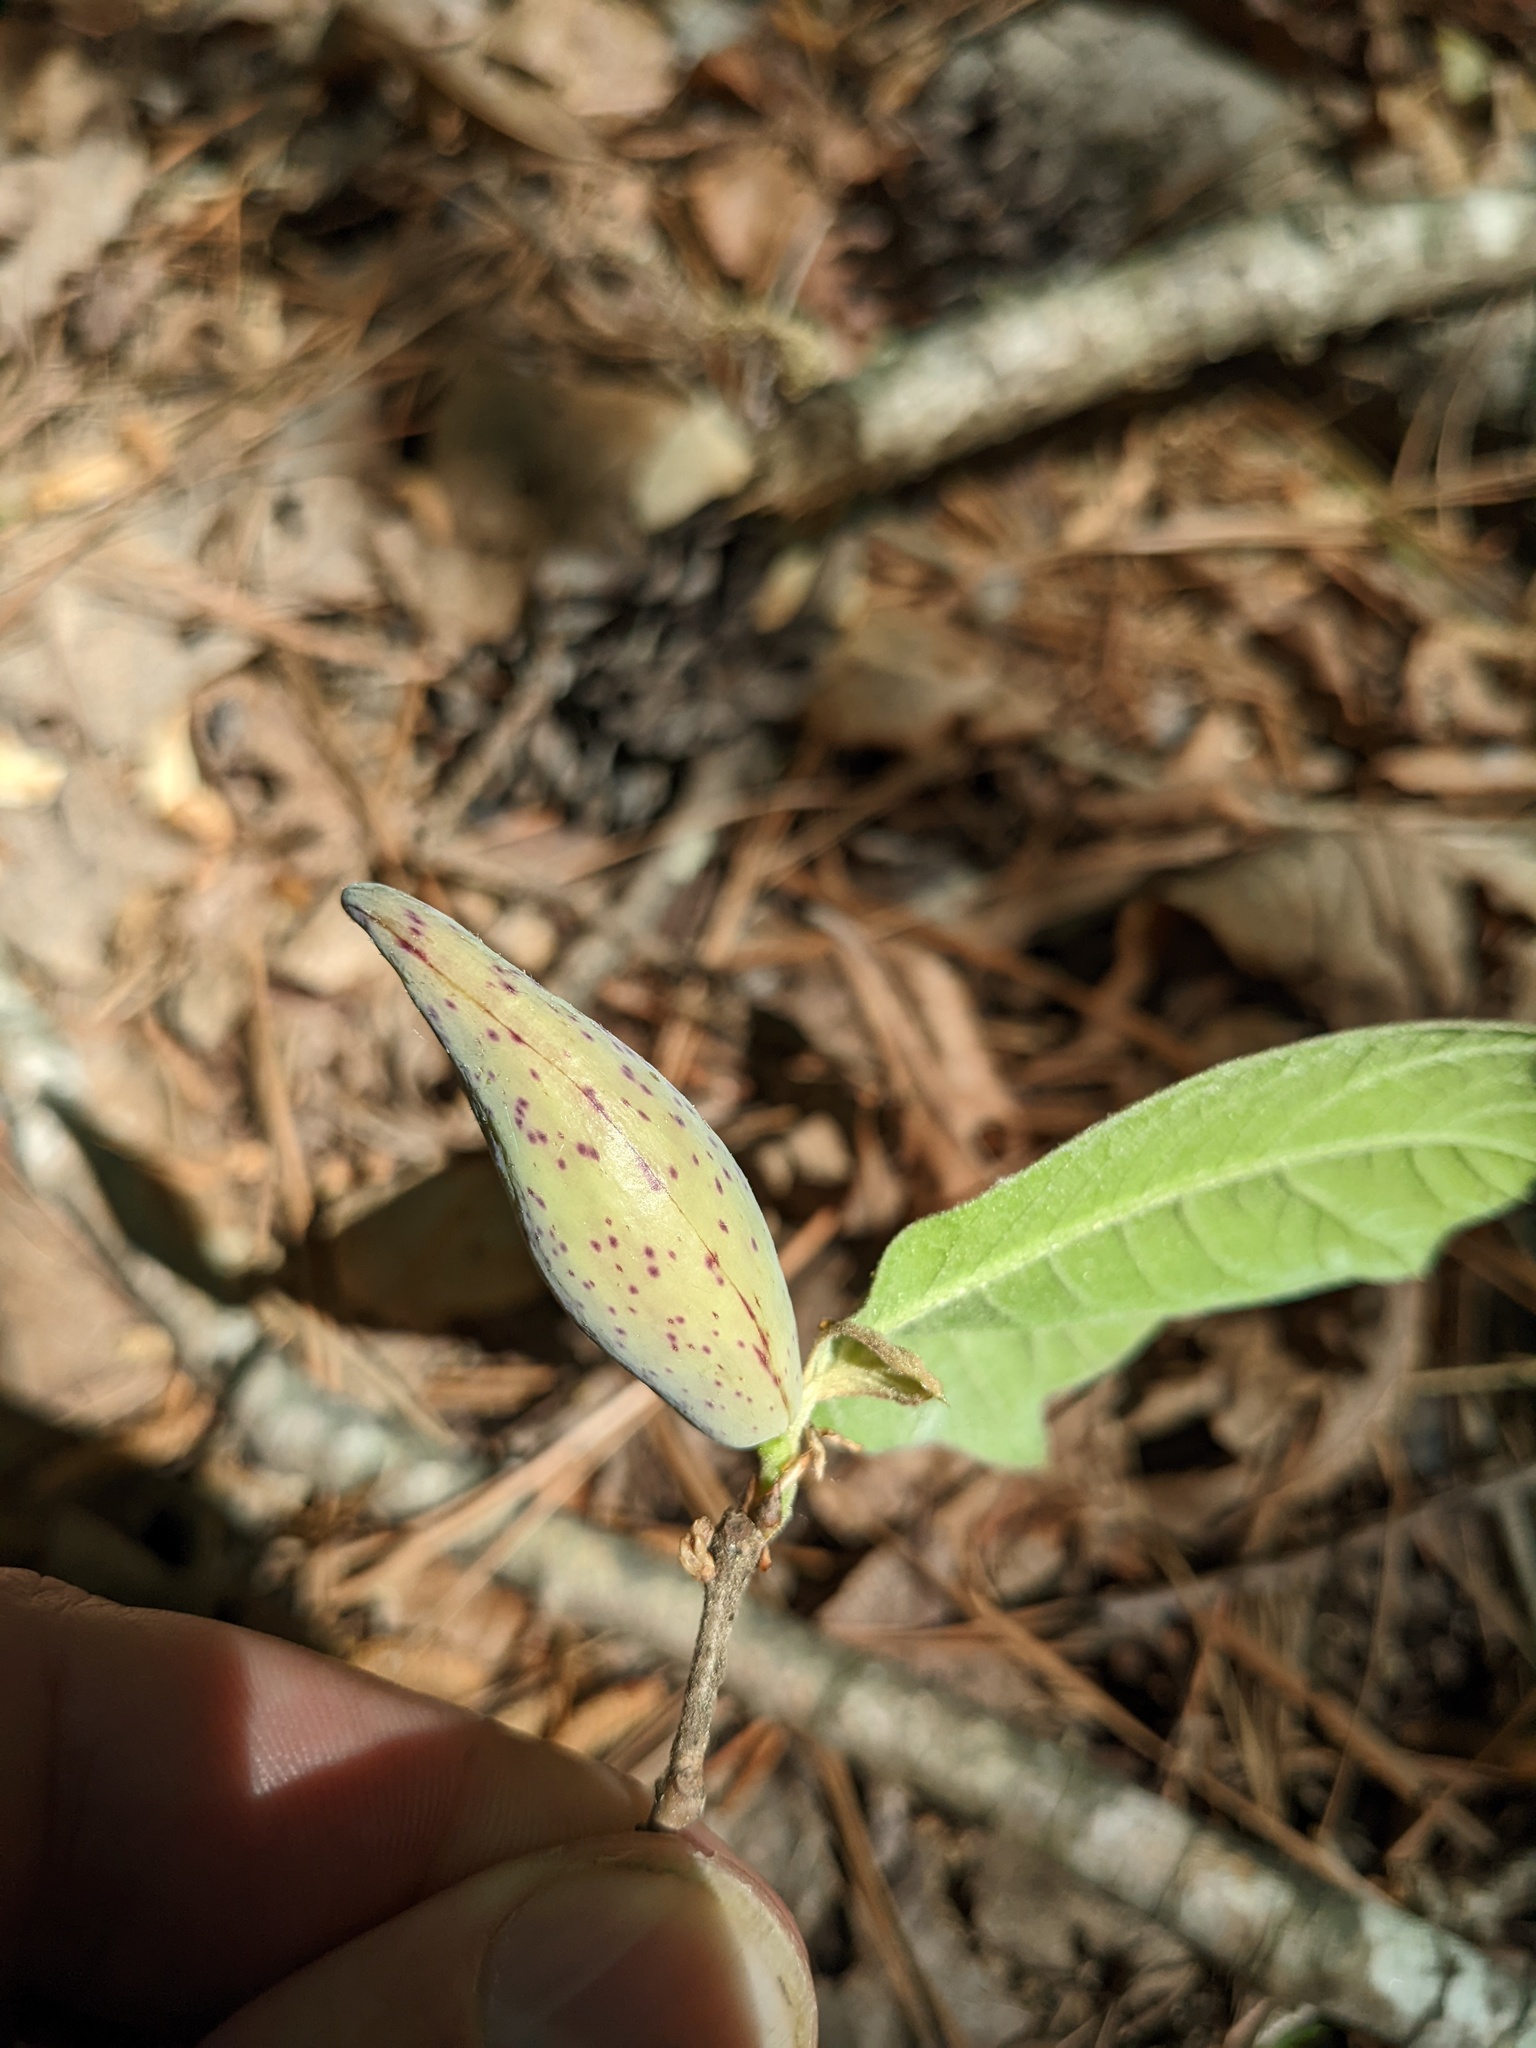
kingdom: Animalia
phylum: Arthropoda
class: Insecta
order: Hymenoptera
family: Cynipidae
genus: Amphibolips
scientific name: Amphibolips
